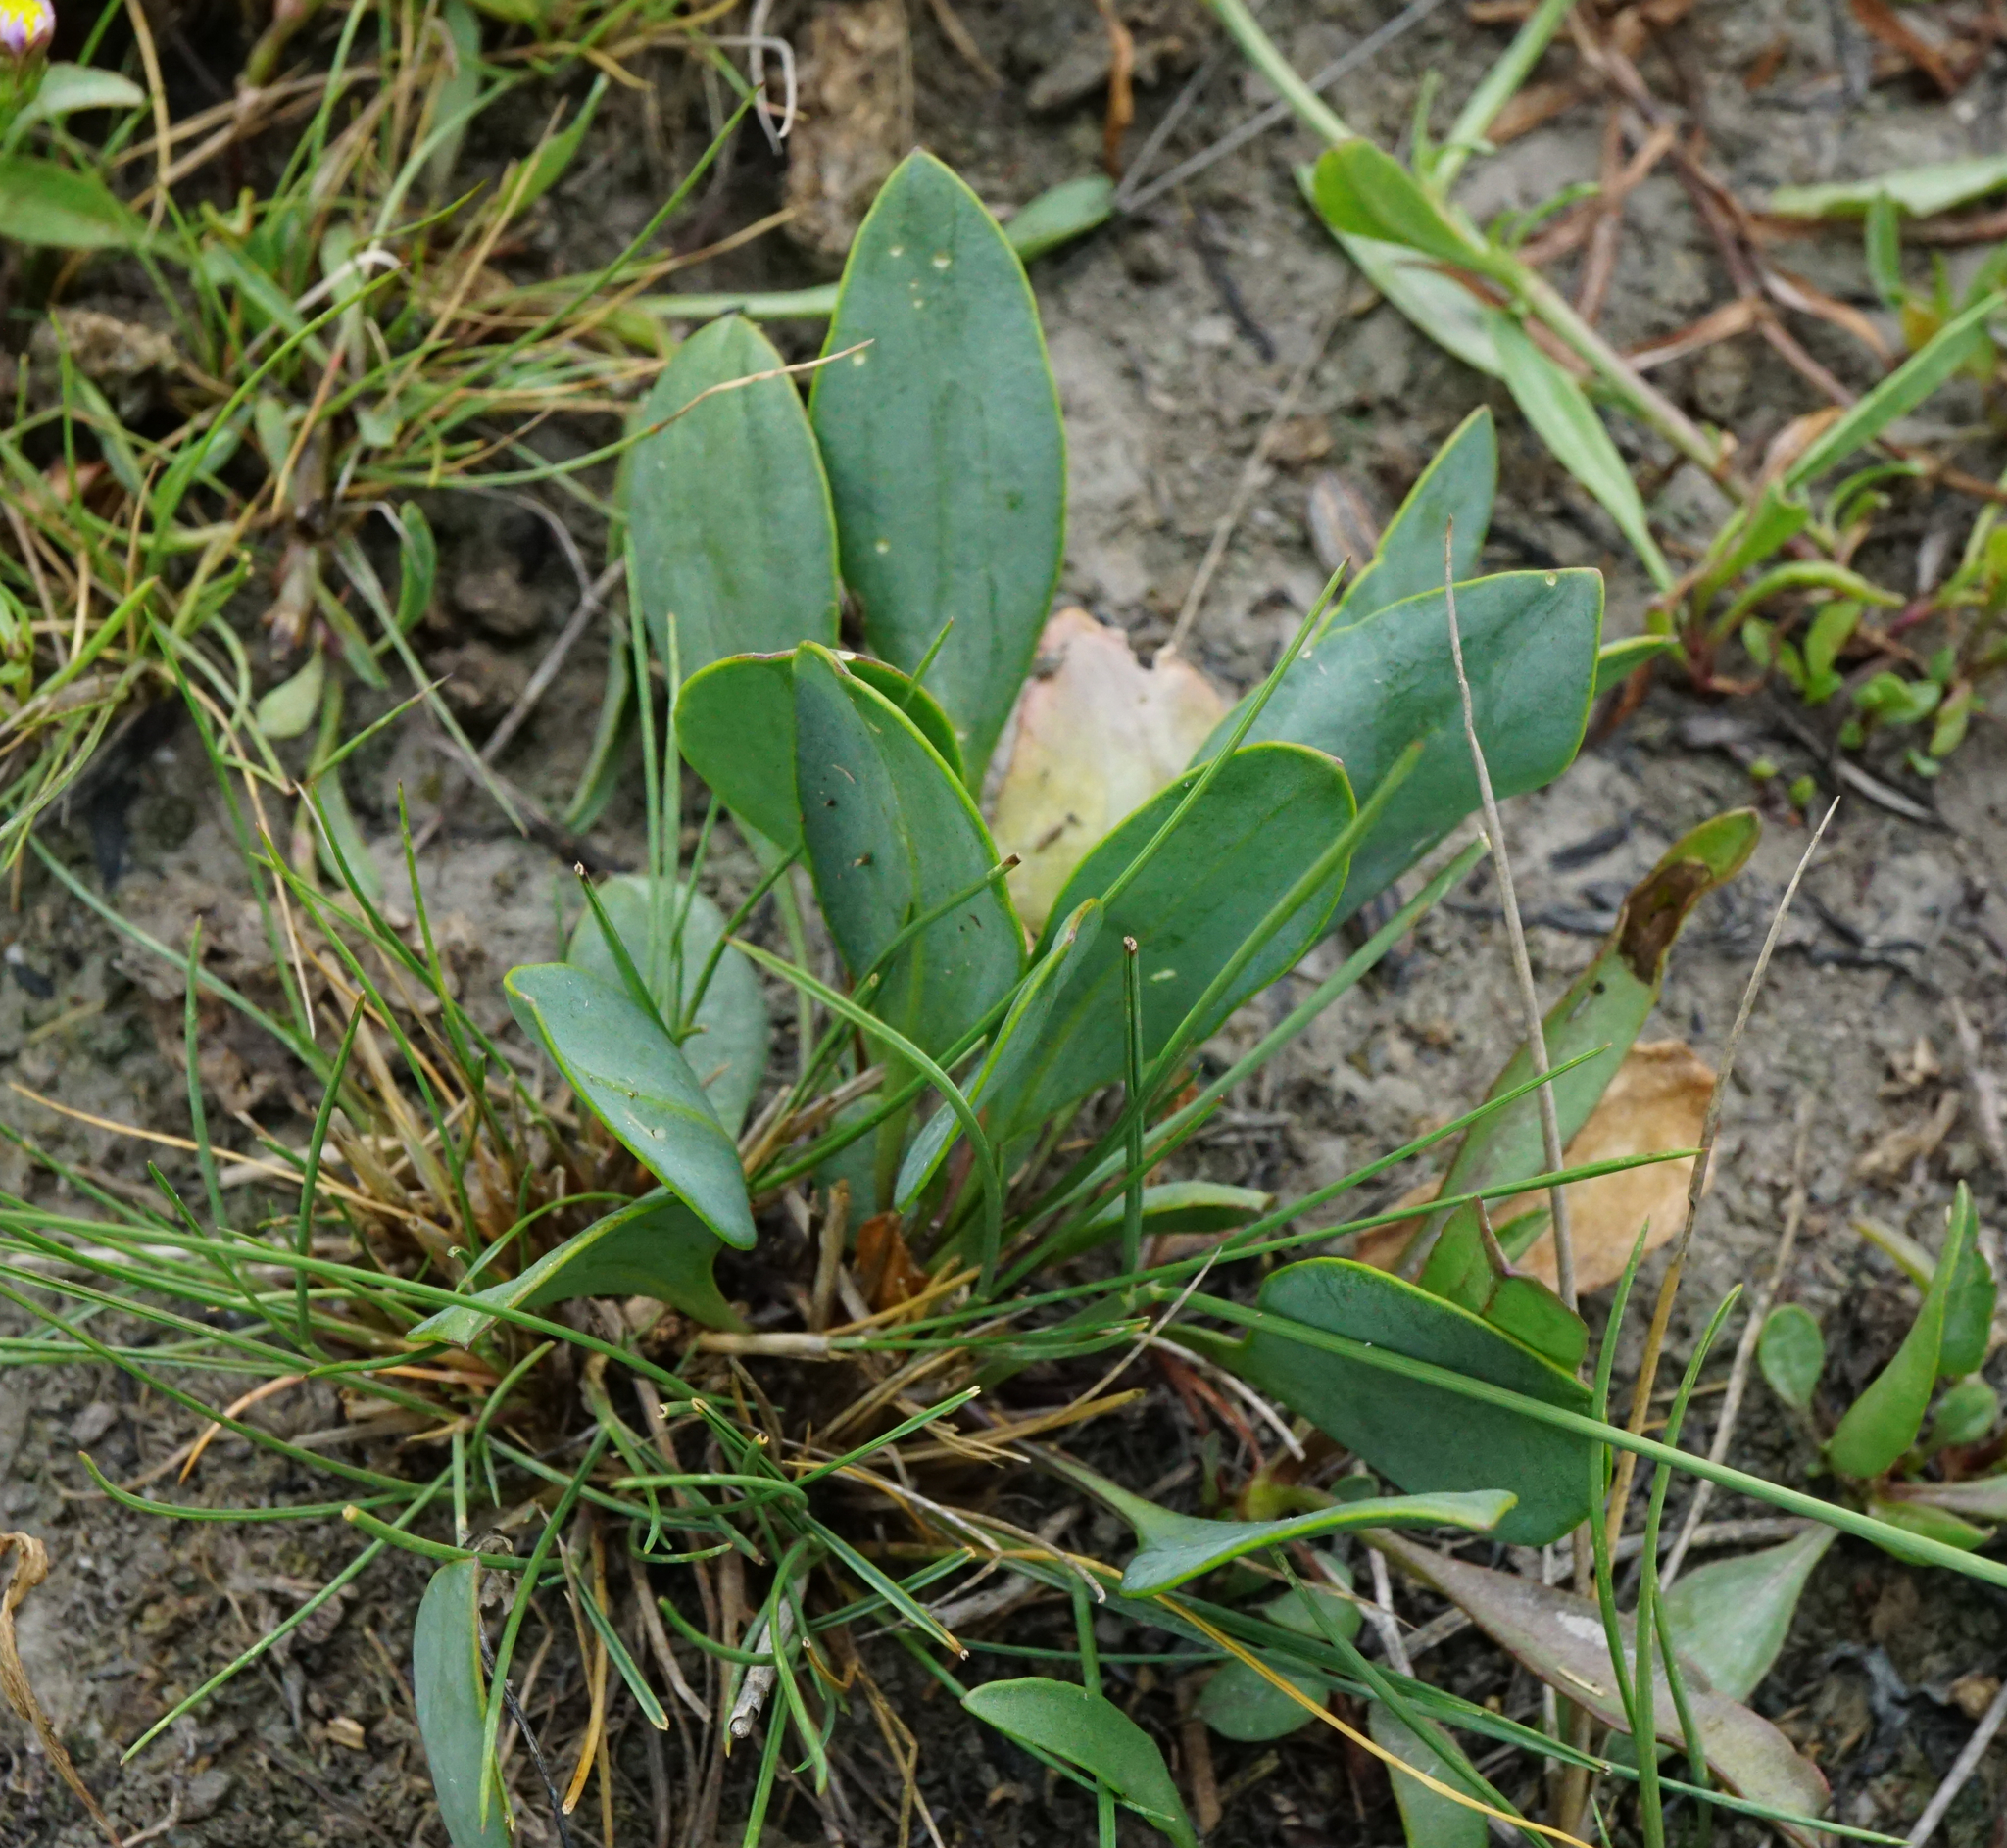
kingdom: Plantae
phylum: Tracheophyta
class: Magnoliopsida
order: Brassicales
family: Brassicaceae
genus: Lepidium
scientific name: Lepidium cartilagineum
